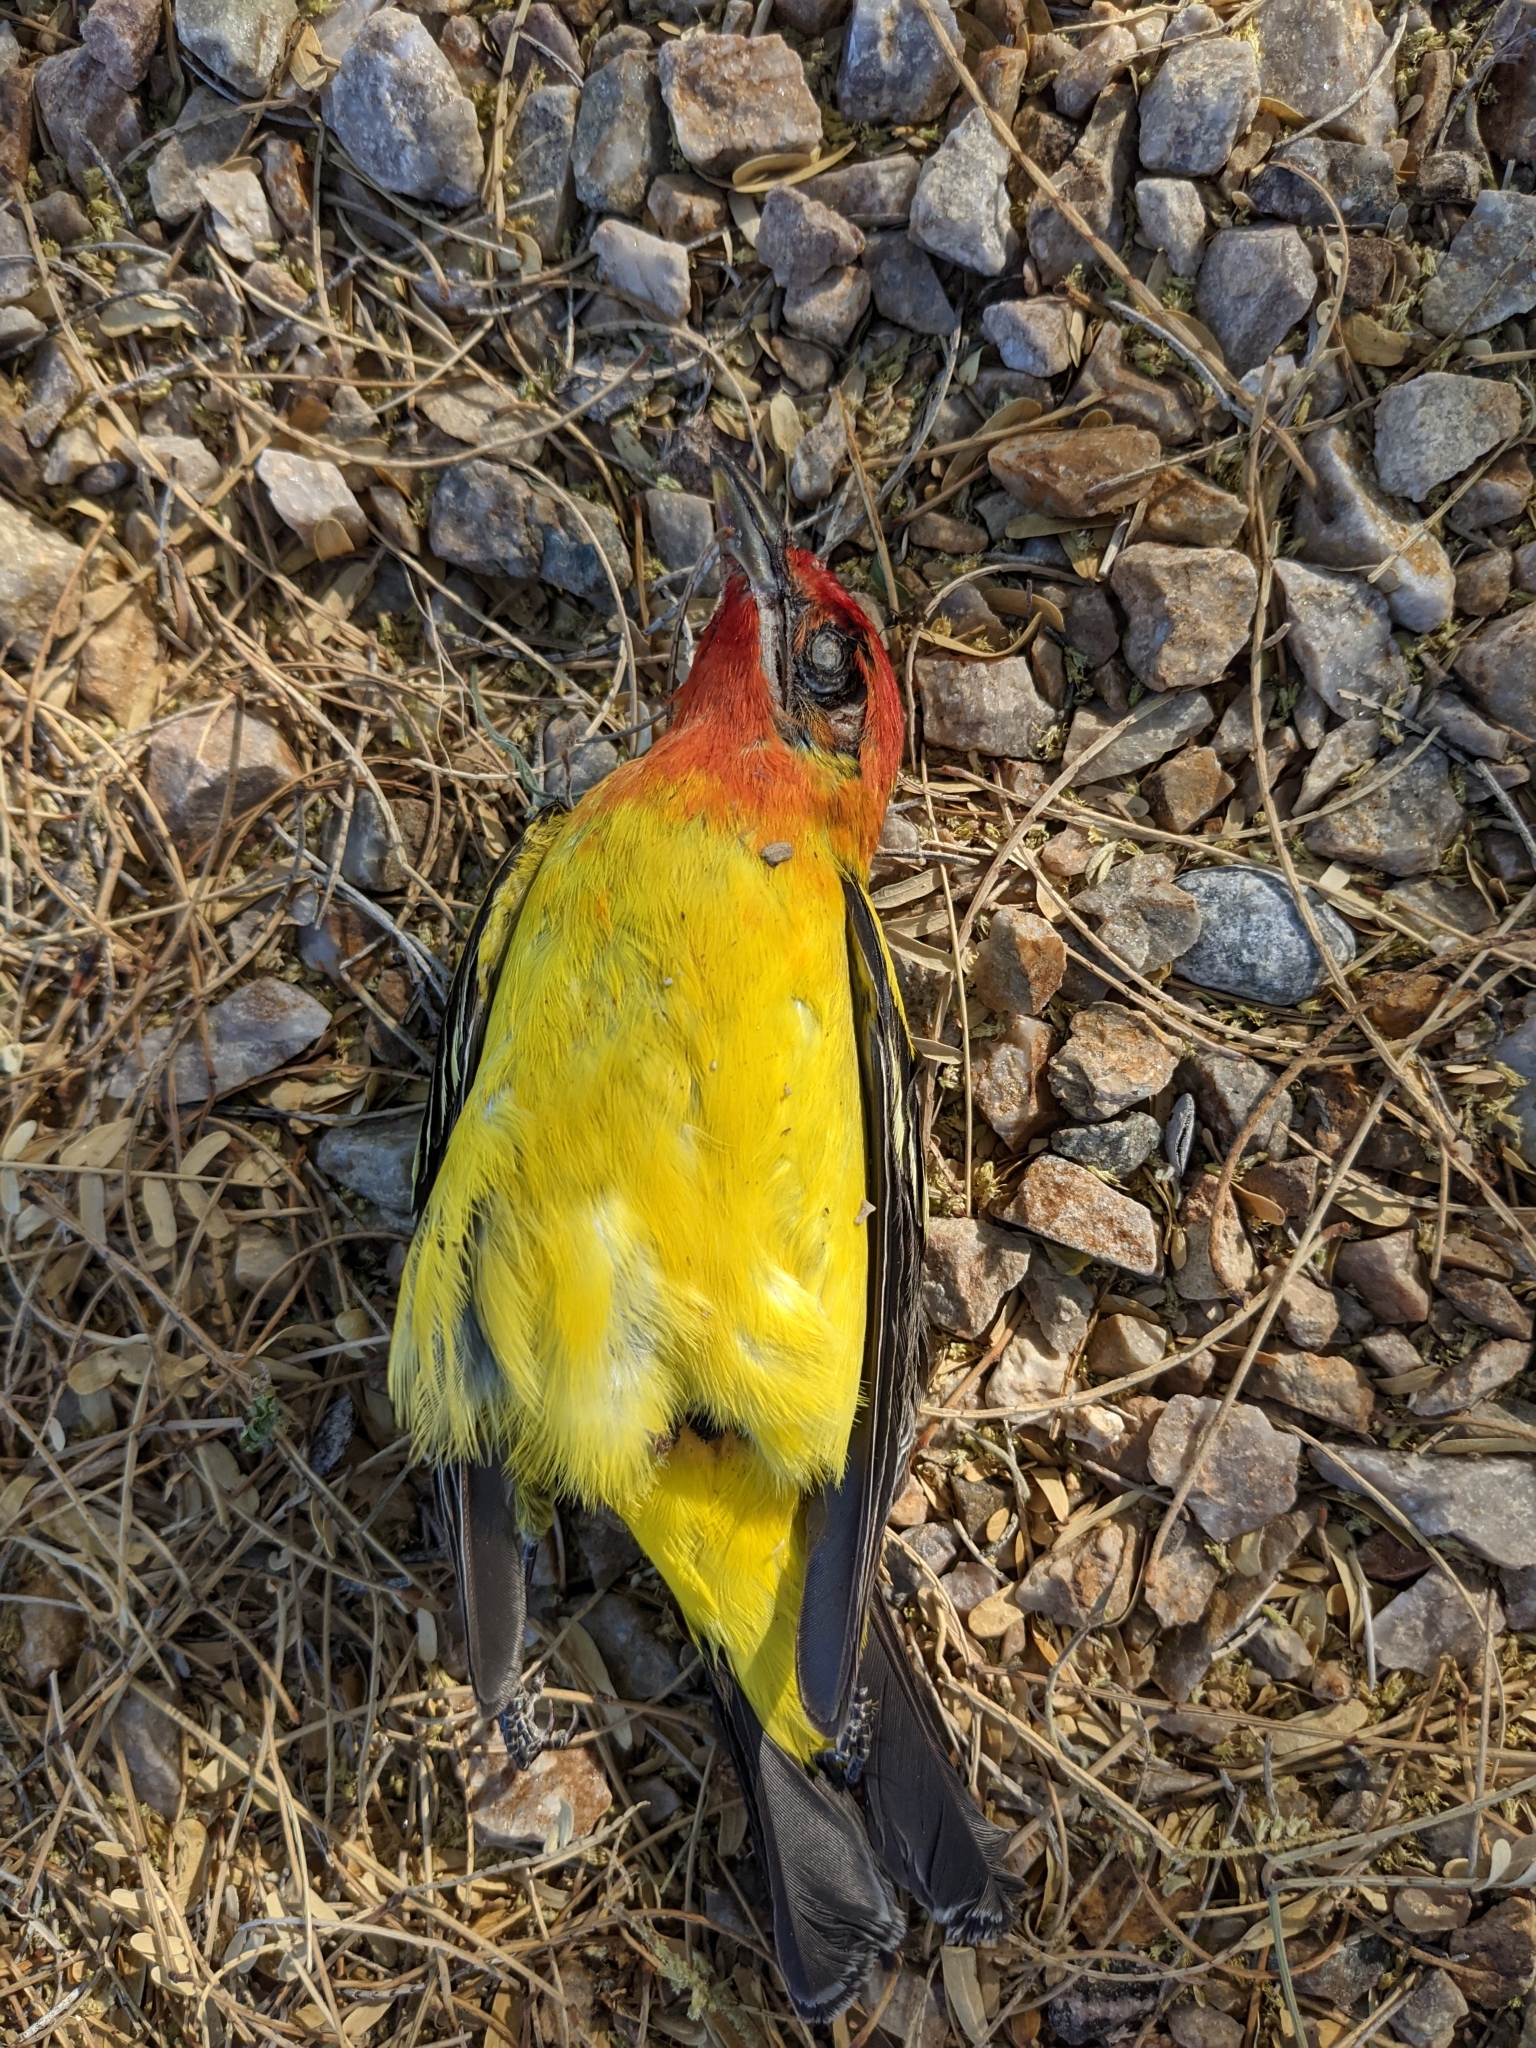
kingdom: Animalia
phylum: Chordata
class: Aves
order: Passeriformes
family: Cardinalidae
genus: Piranga
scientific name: Piranga ludoviciana
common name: Western tanager
